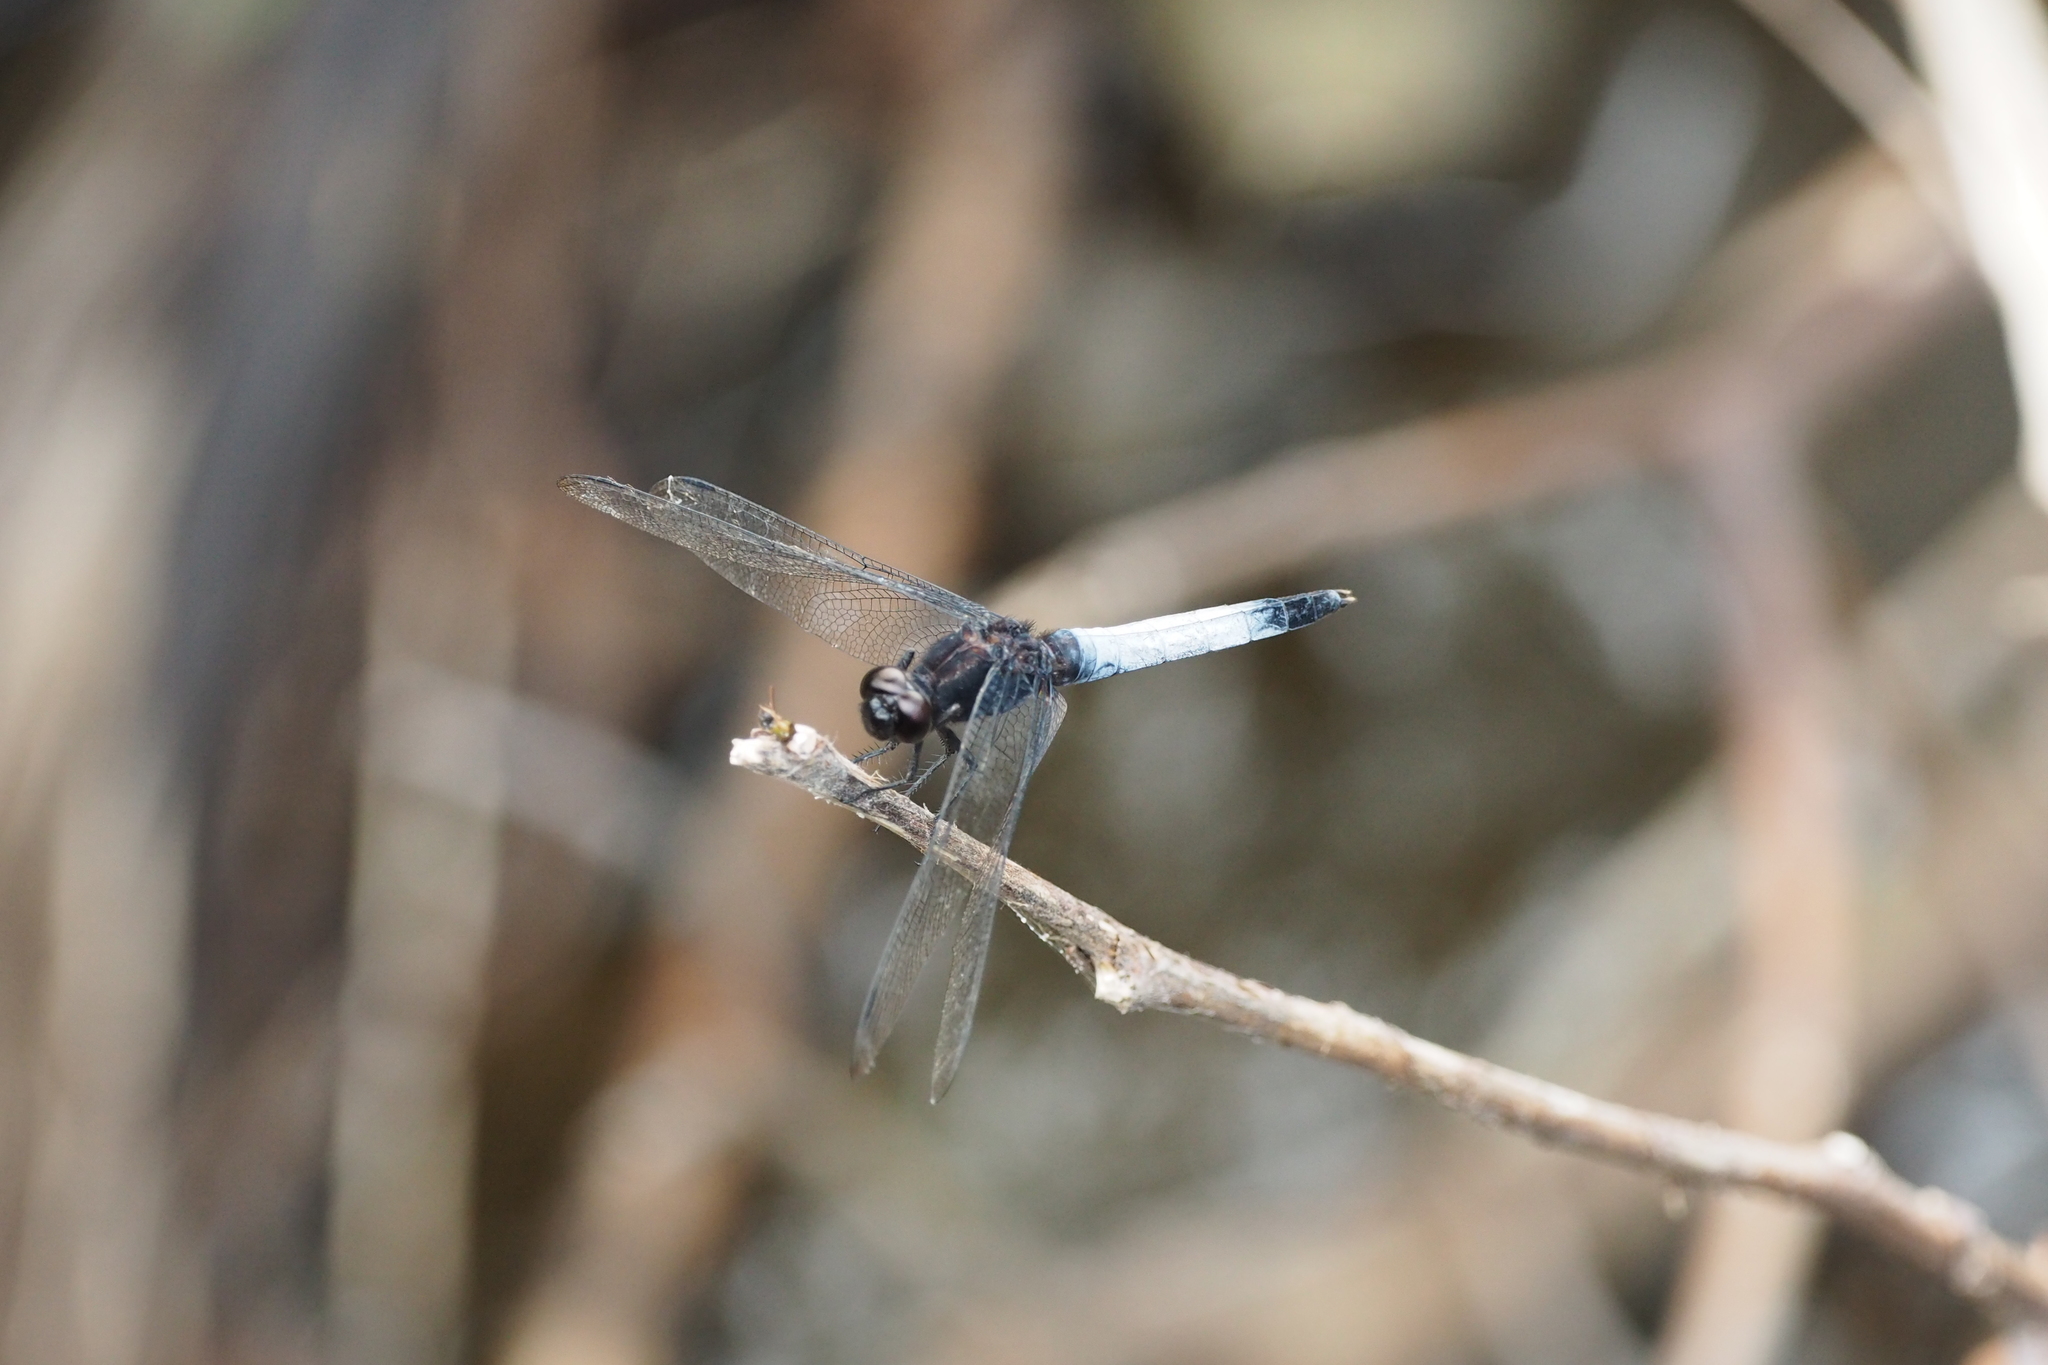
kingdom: Animalia
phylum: Arthropoda
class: Insecta
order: Odonata
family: Libellulidae
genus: Orthetrum
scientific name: Orthetrum triangulare
